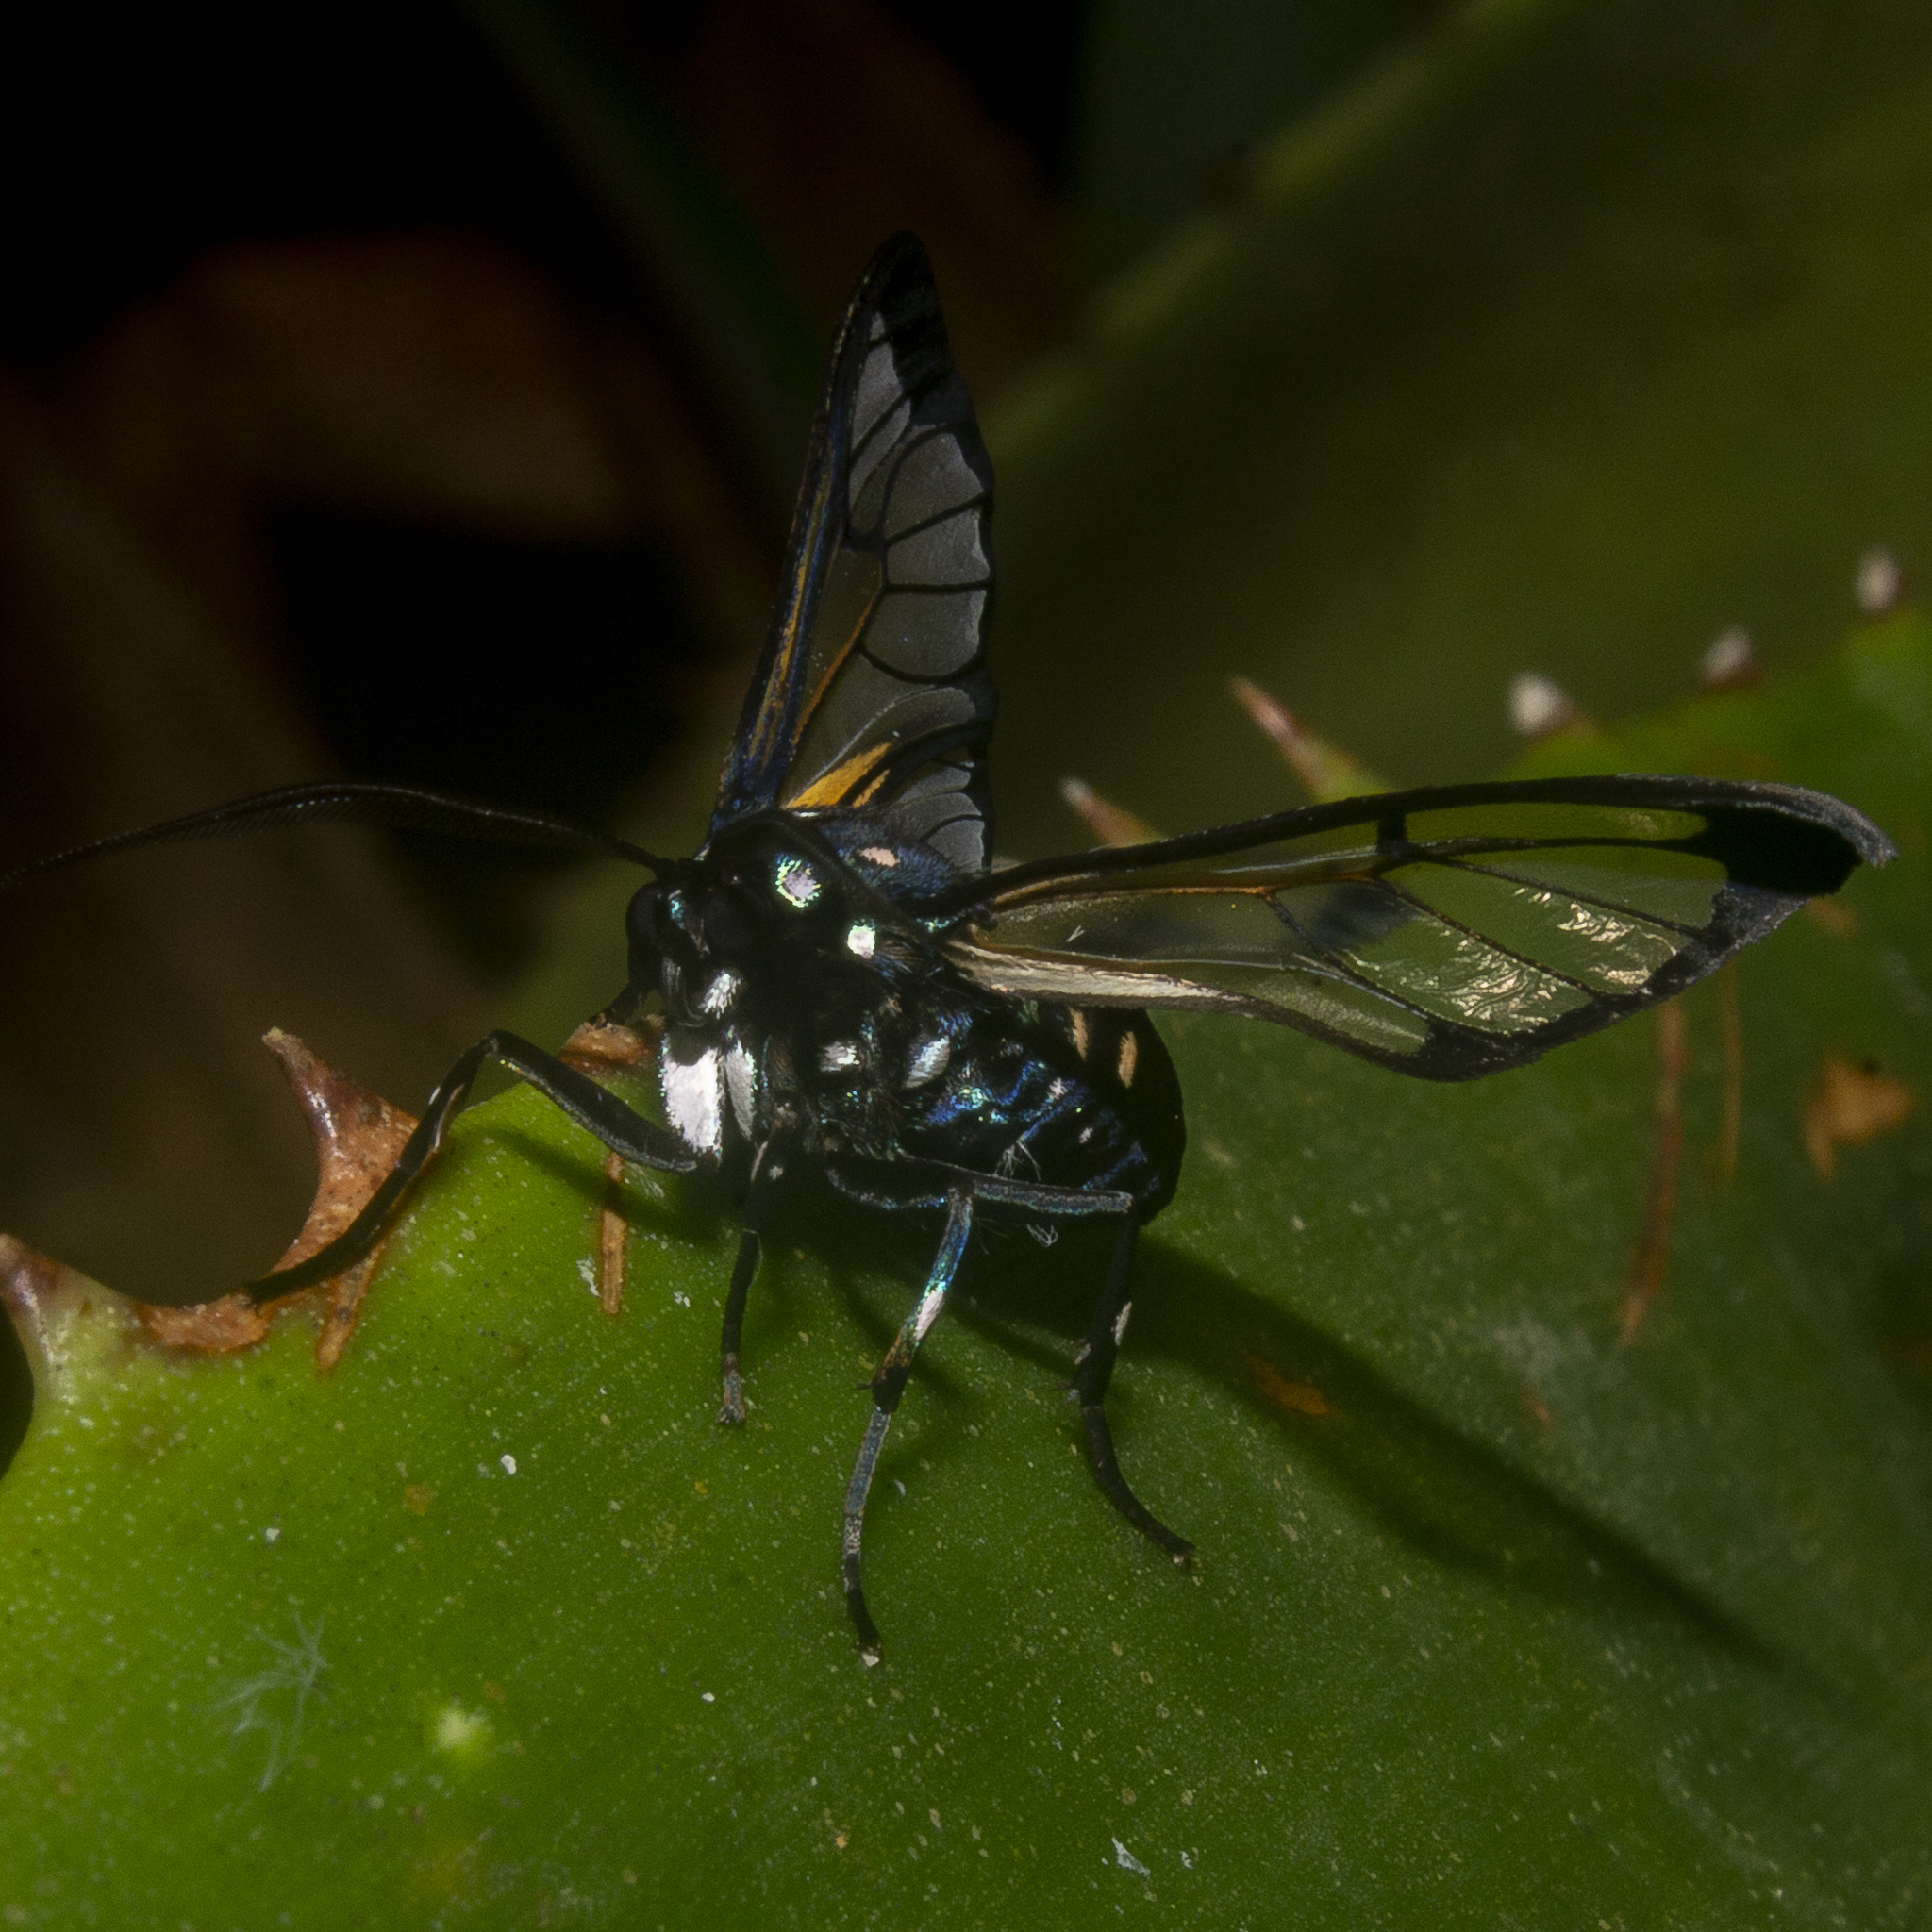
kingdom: Animalia
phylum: Arthropoda
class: Insecta
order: Lepidoptera
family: Erebidae
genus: Homoeocera
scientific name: Homoeocera stictosoma
